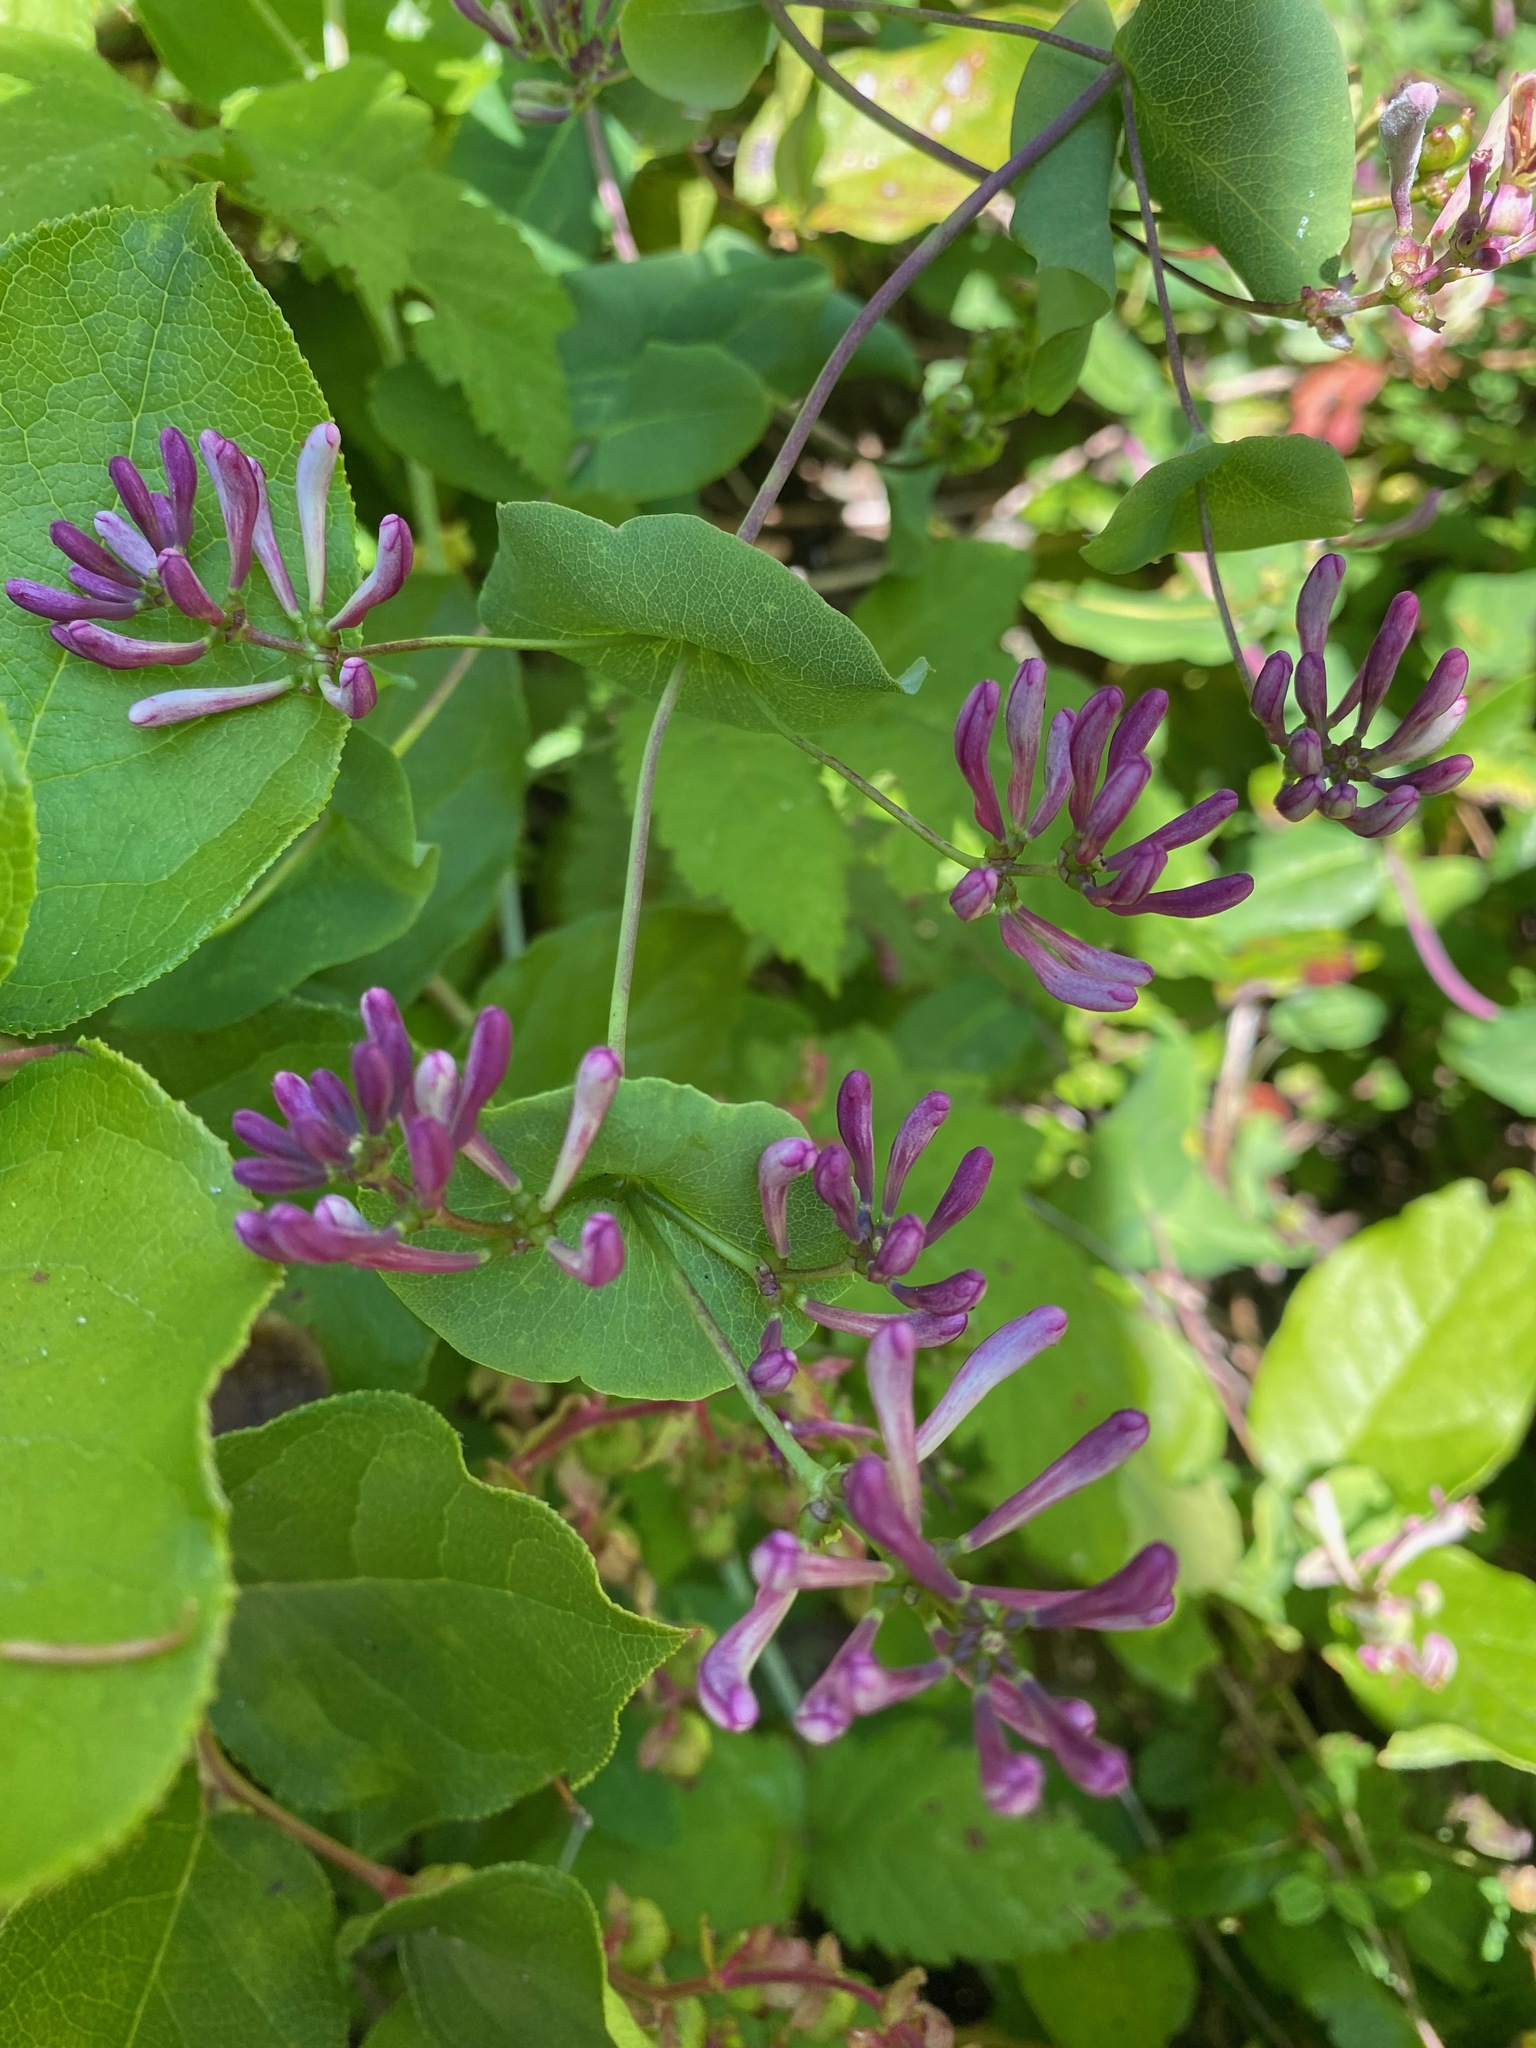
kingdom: Plantae
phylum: Tracheophyta
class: Magnoliopsida
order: Dipsacales
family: Caprifoliaceae
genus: Lonicera
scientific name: Lonicera hispidula
